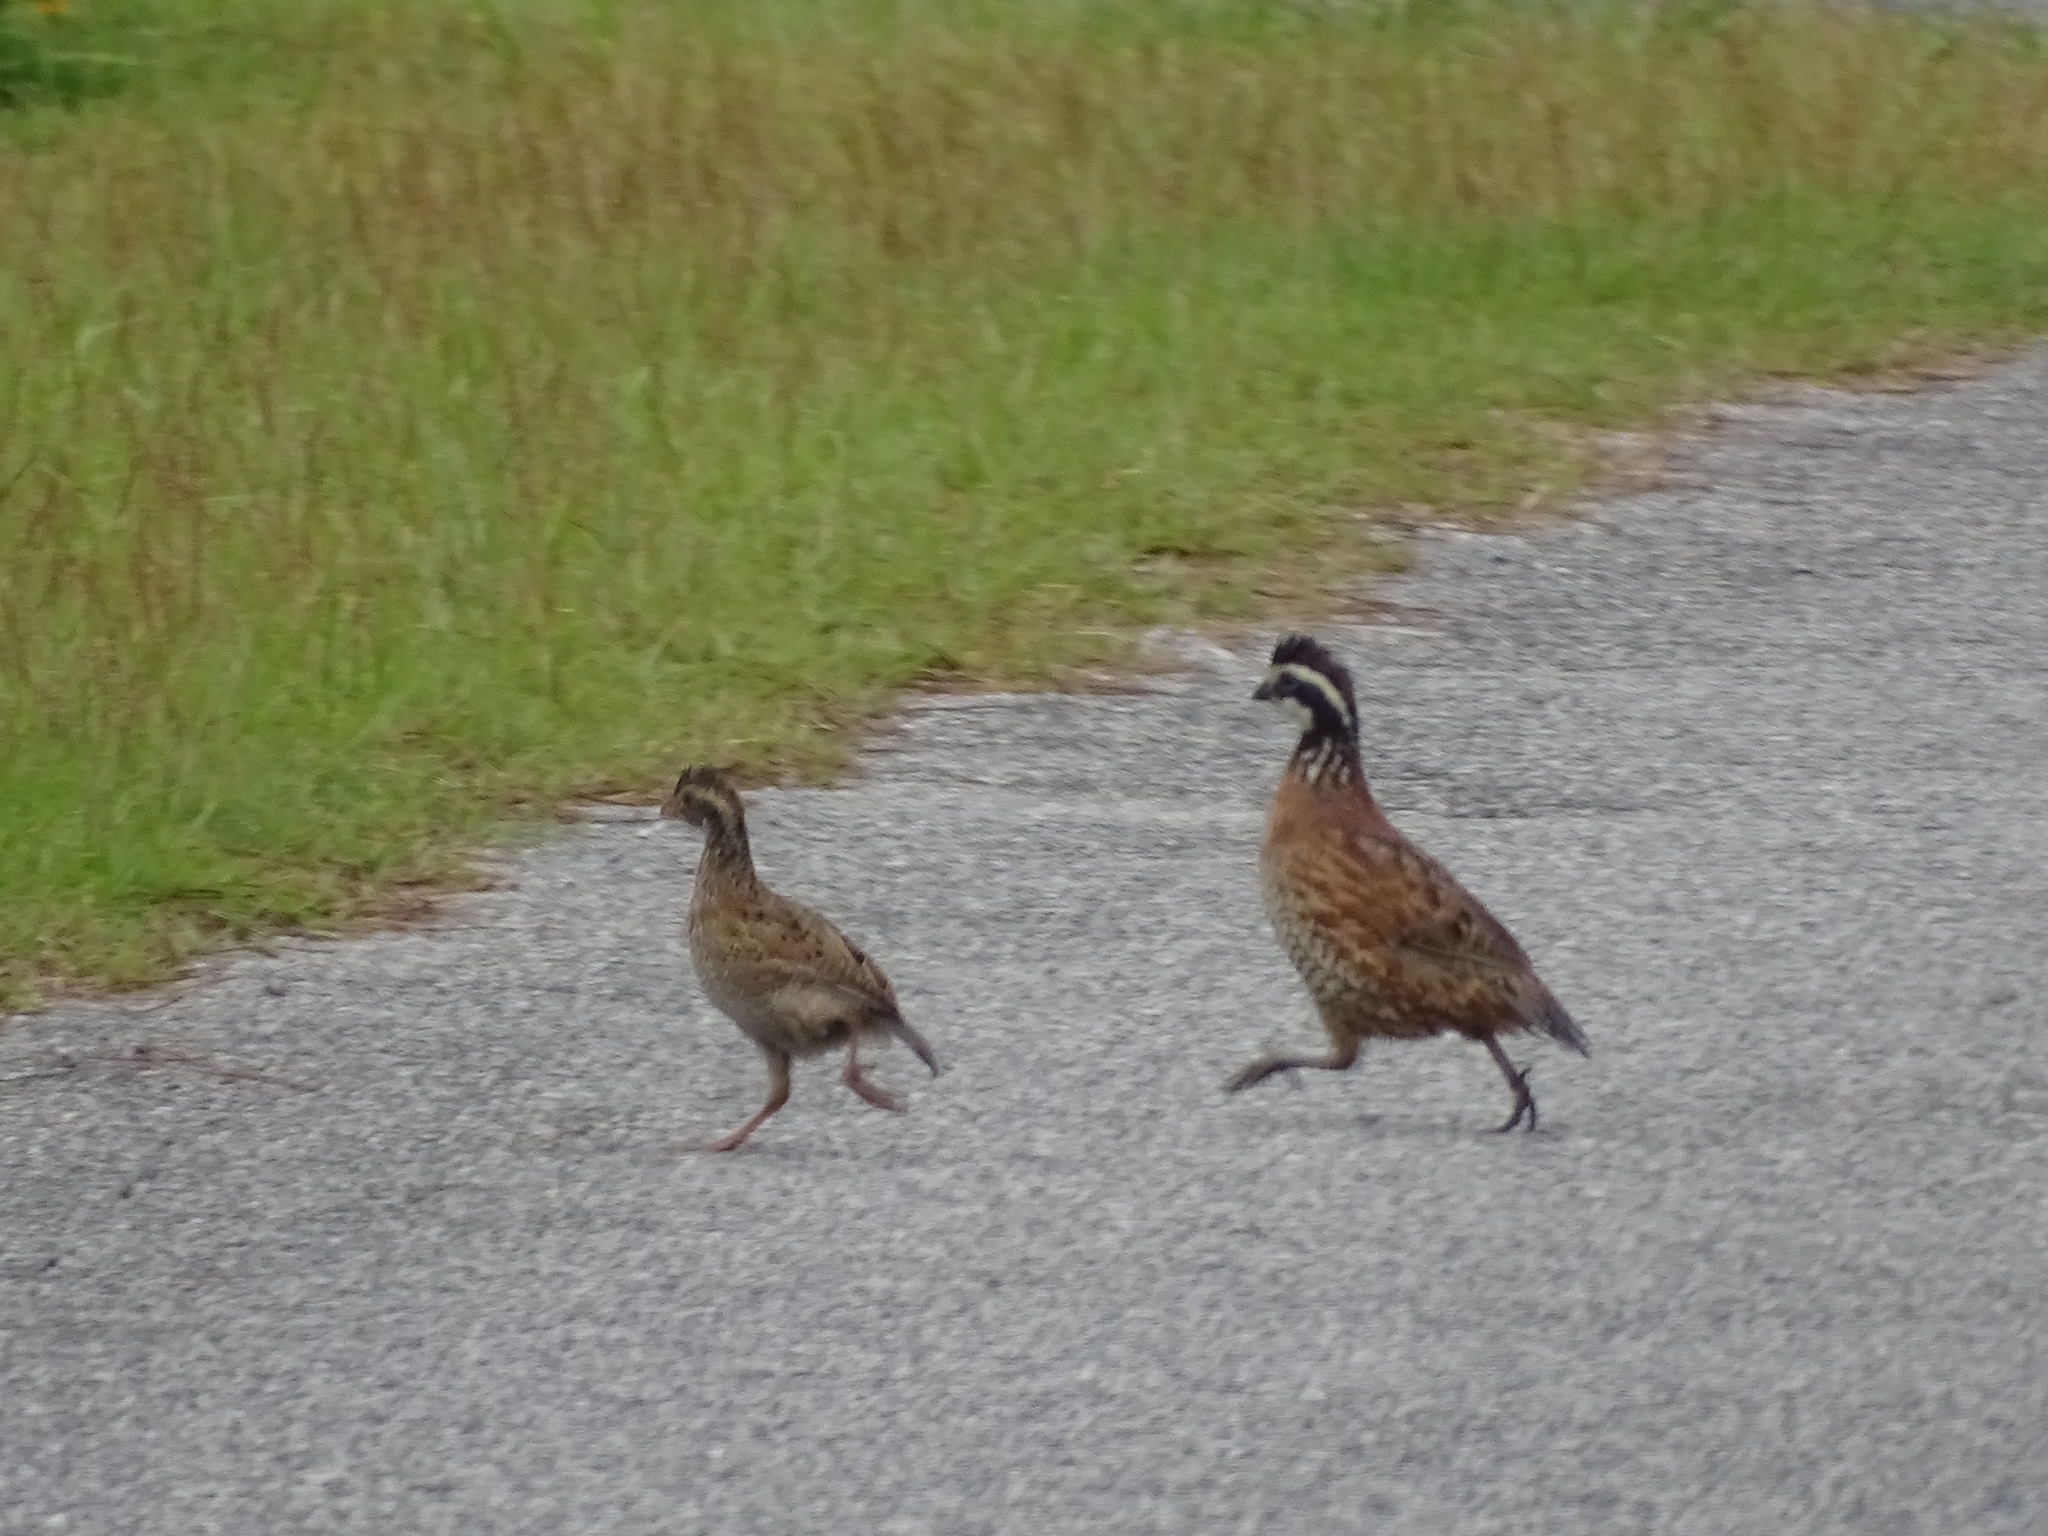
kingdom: Animalia
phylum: Chordata
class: Aves
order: Galliformes
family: Odontophoridae
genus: Colinus
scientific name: Colinus virginianus
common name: Northern bobwhite
